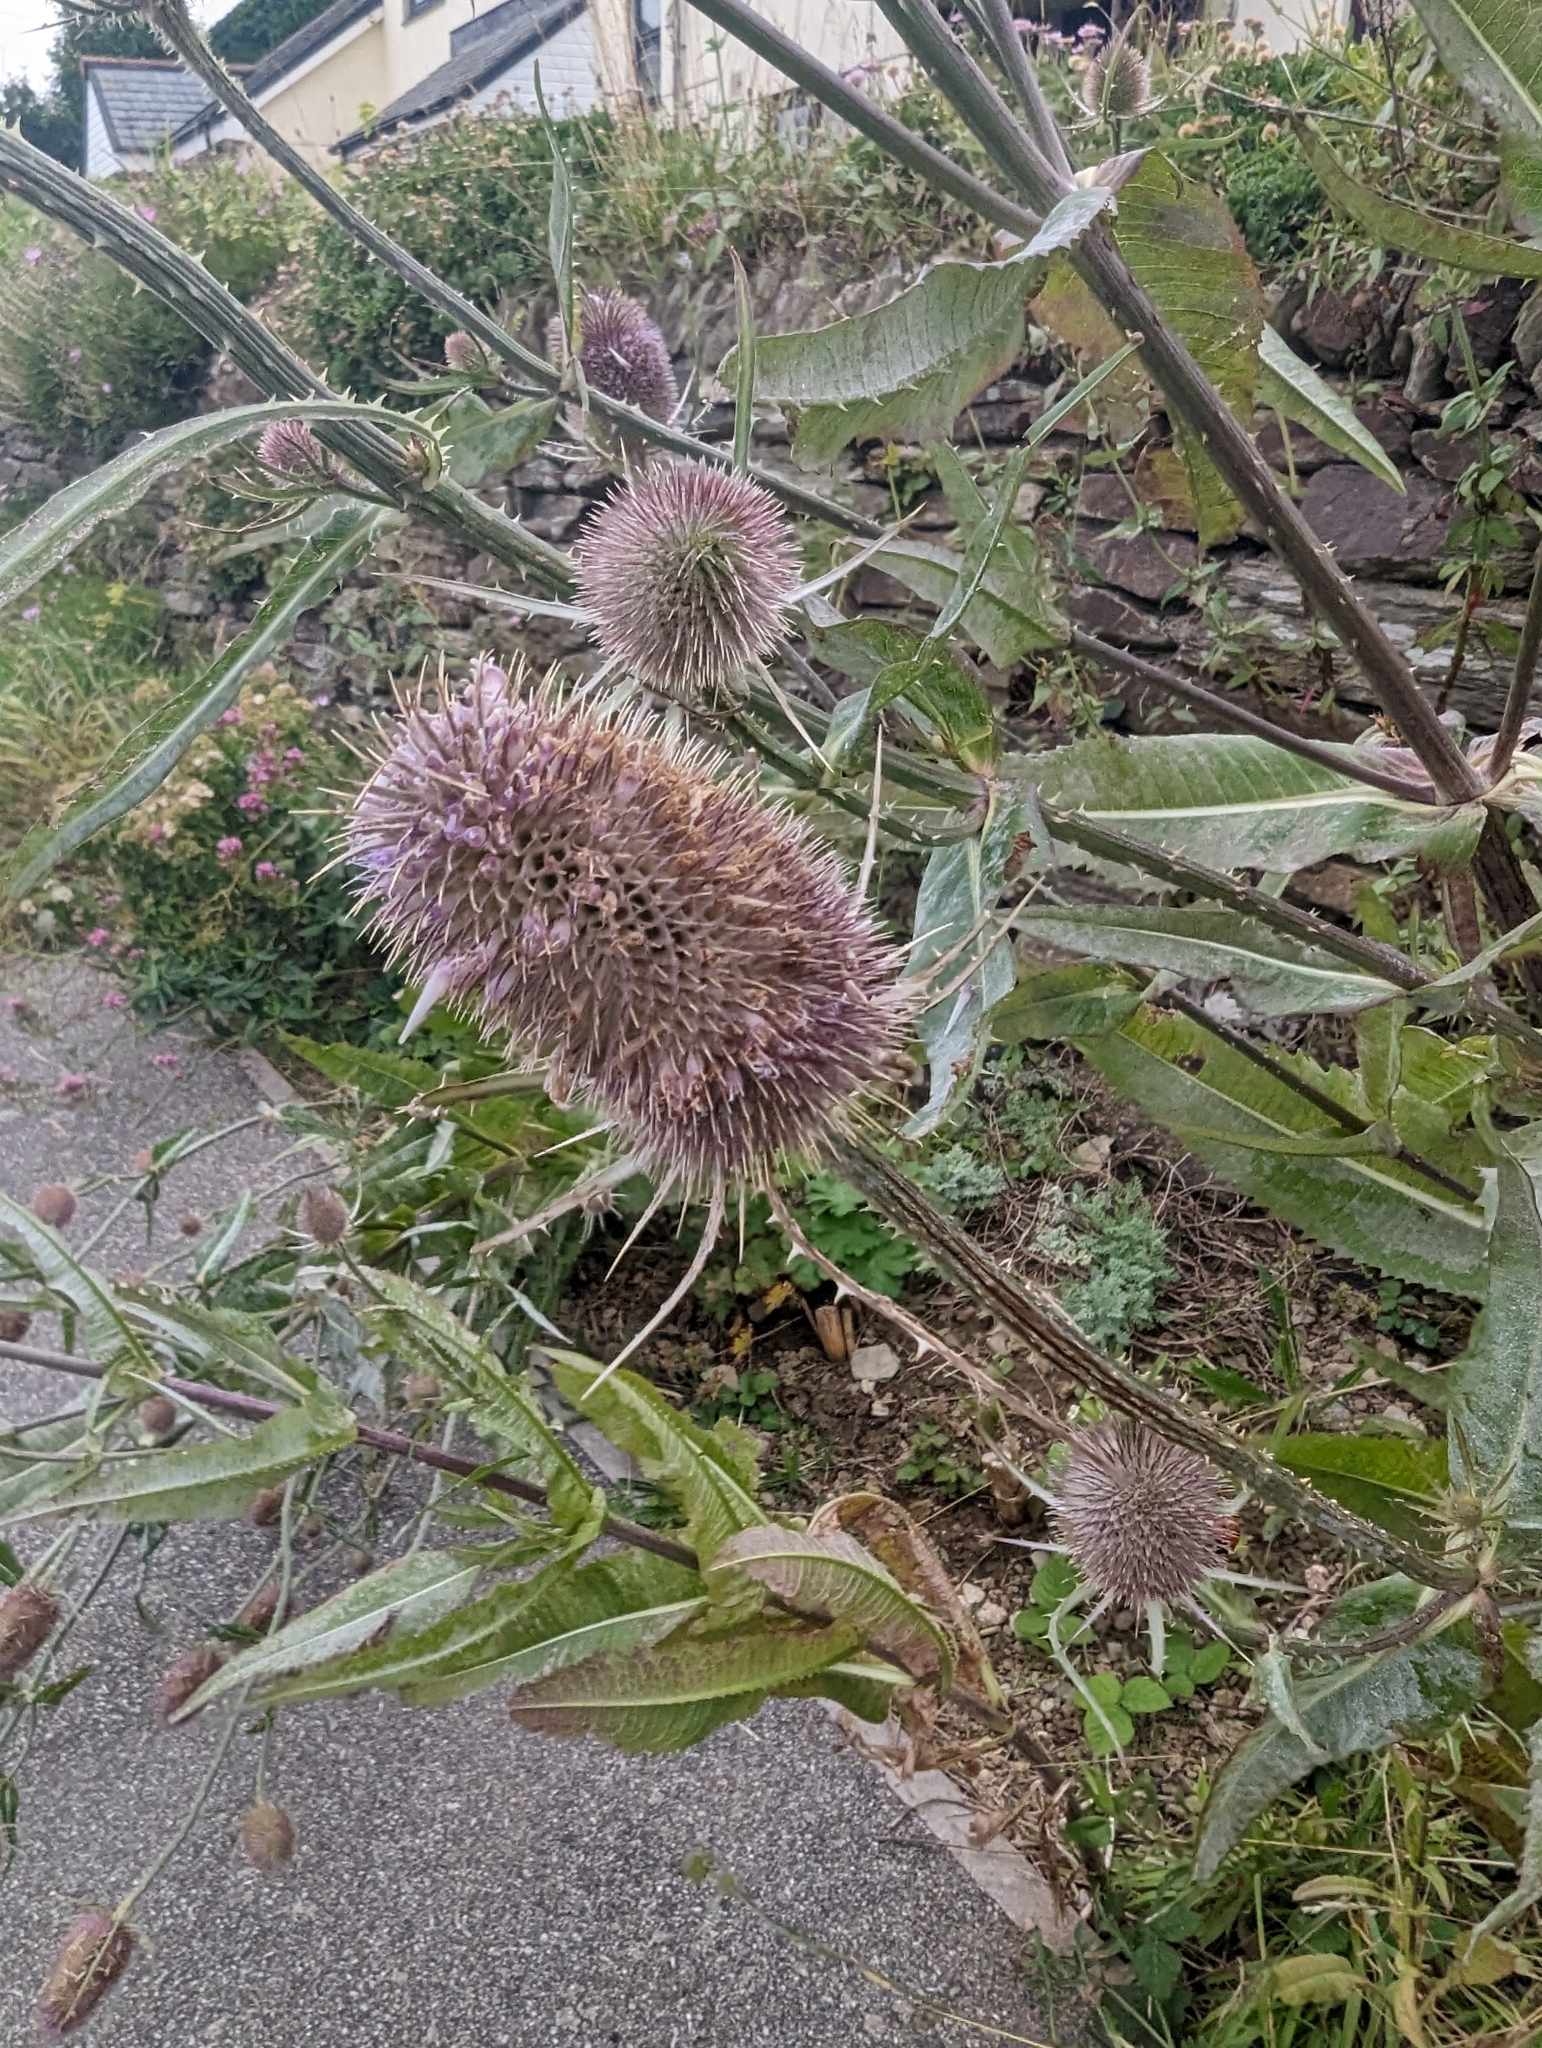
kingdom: Plantae
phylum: Tracheophyta
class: Magnoliopsida
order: Dipsacales
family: Caprifoliaceae
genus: Dipsacus
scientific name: Dipsacus fullonum
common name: Teasel
